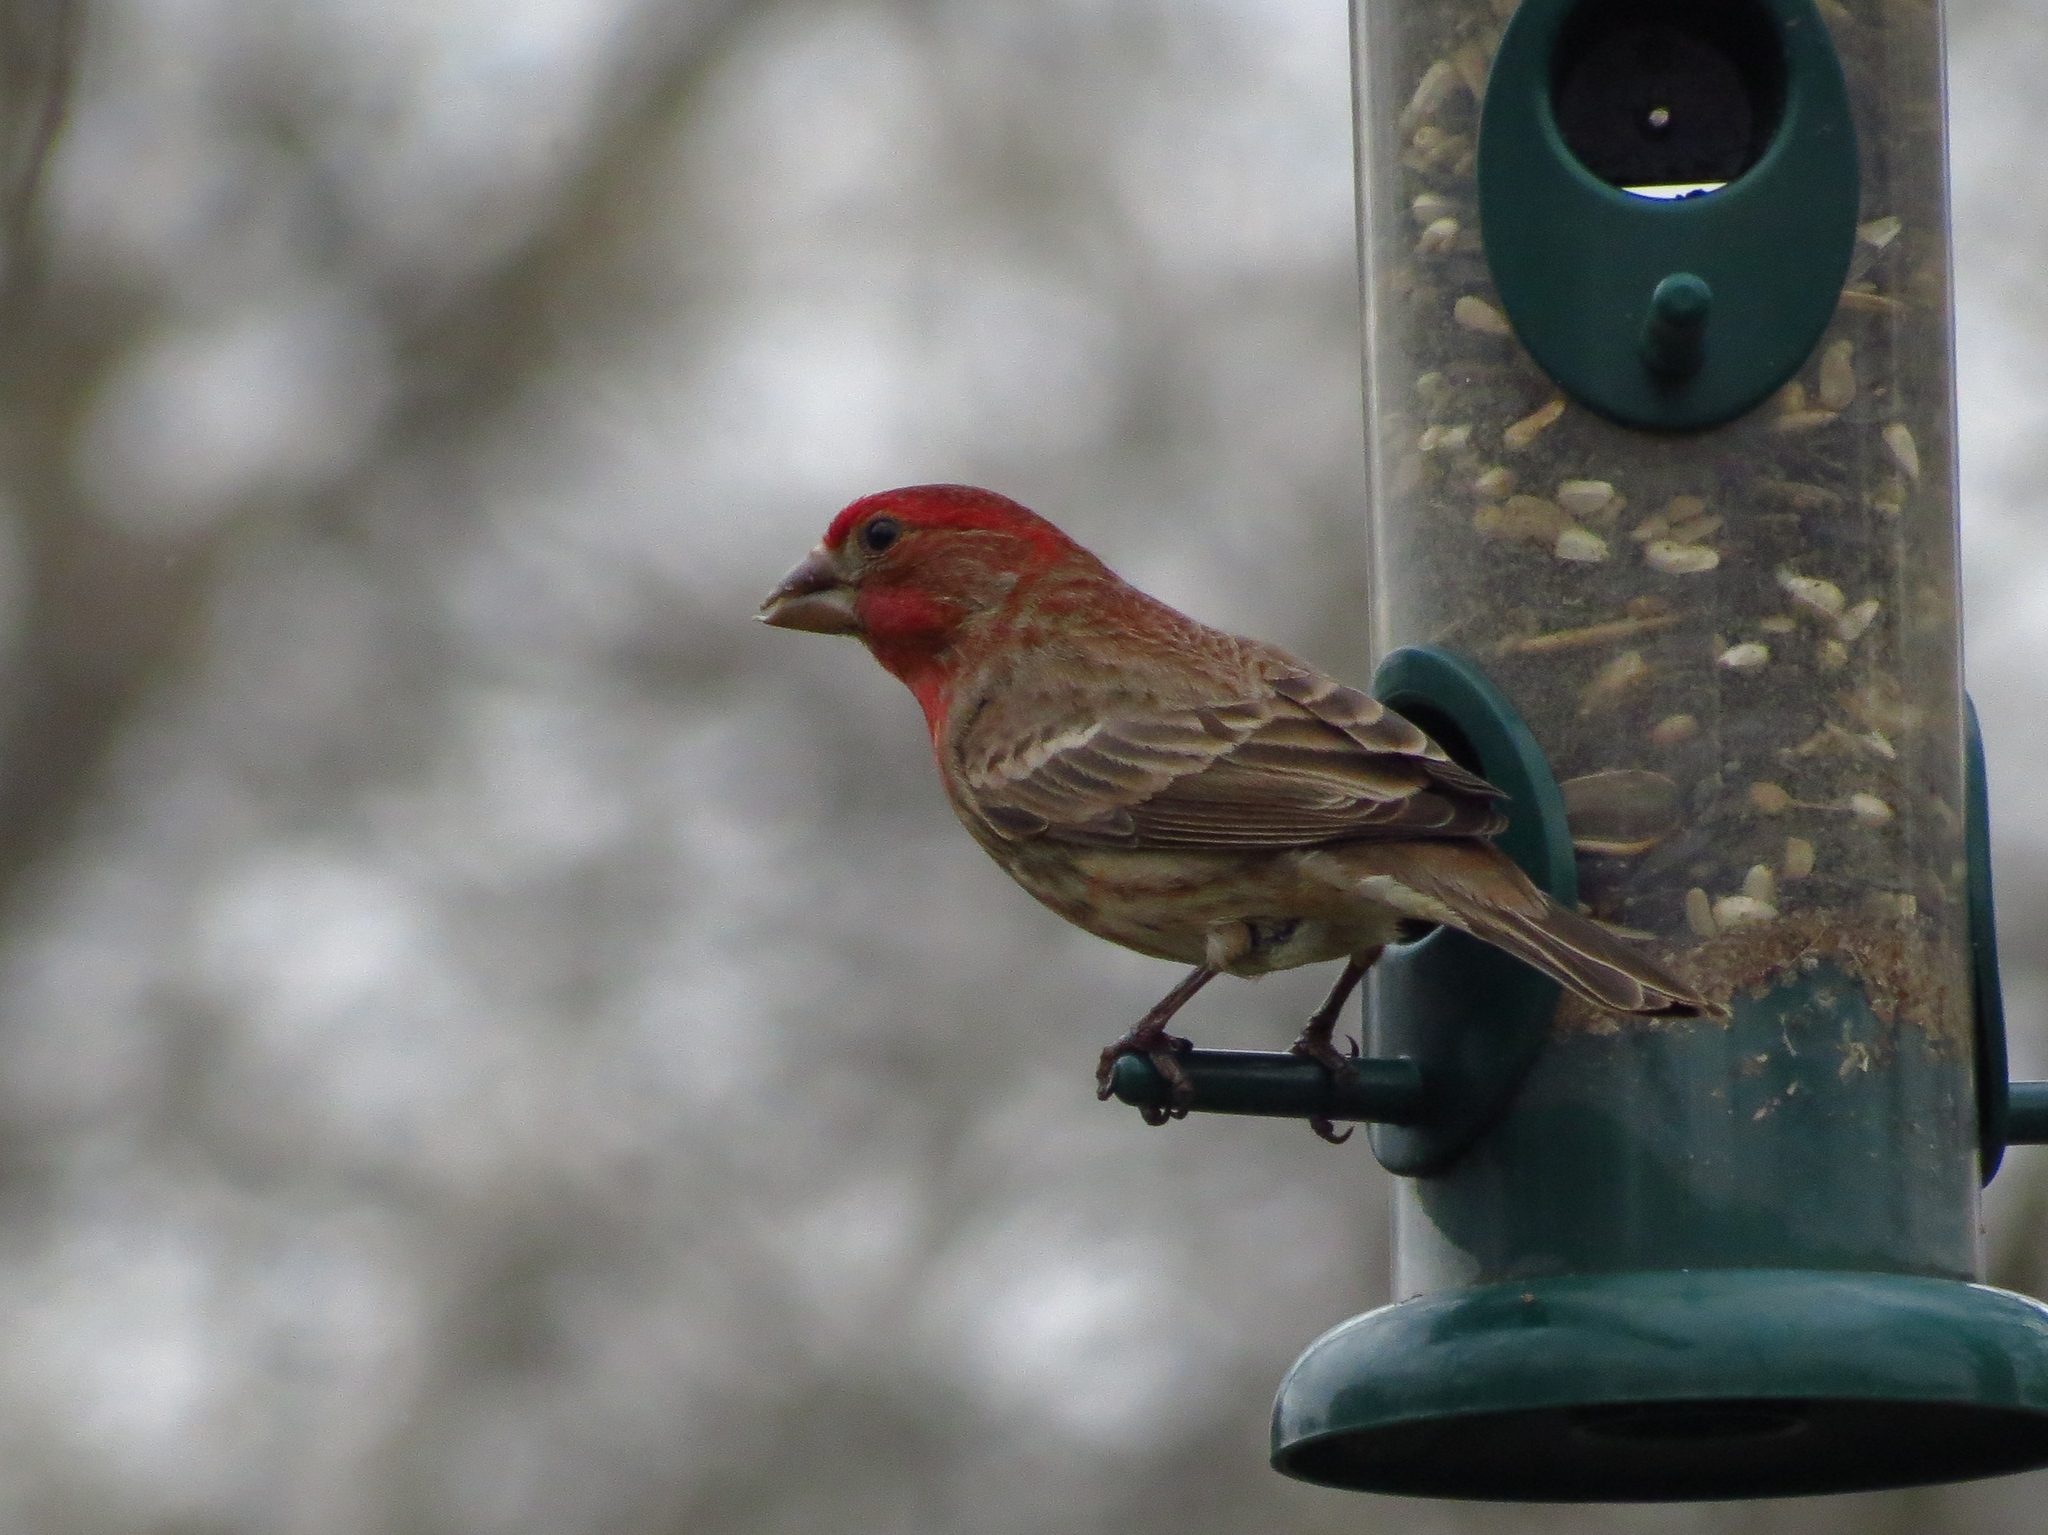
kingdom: Animalia
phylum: Chordata
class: Aves
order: Passeriformes
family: Fringillidae
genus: Haemorhous
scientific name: Haemorhous mexicanus
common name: House finch
